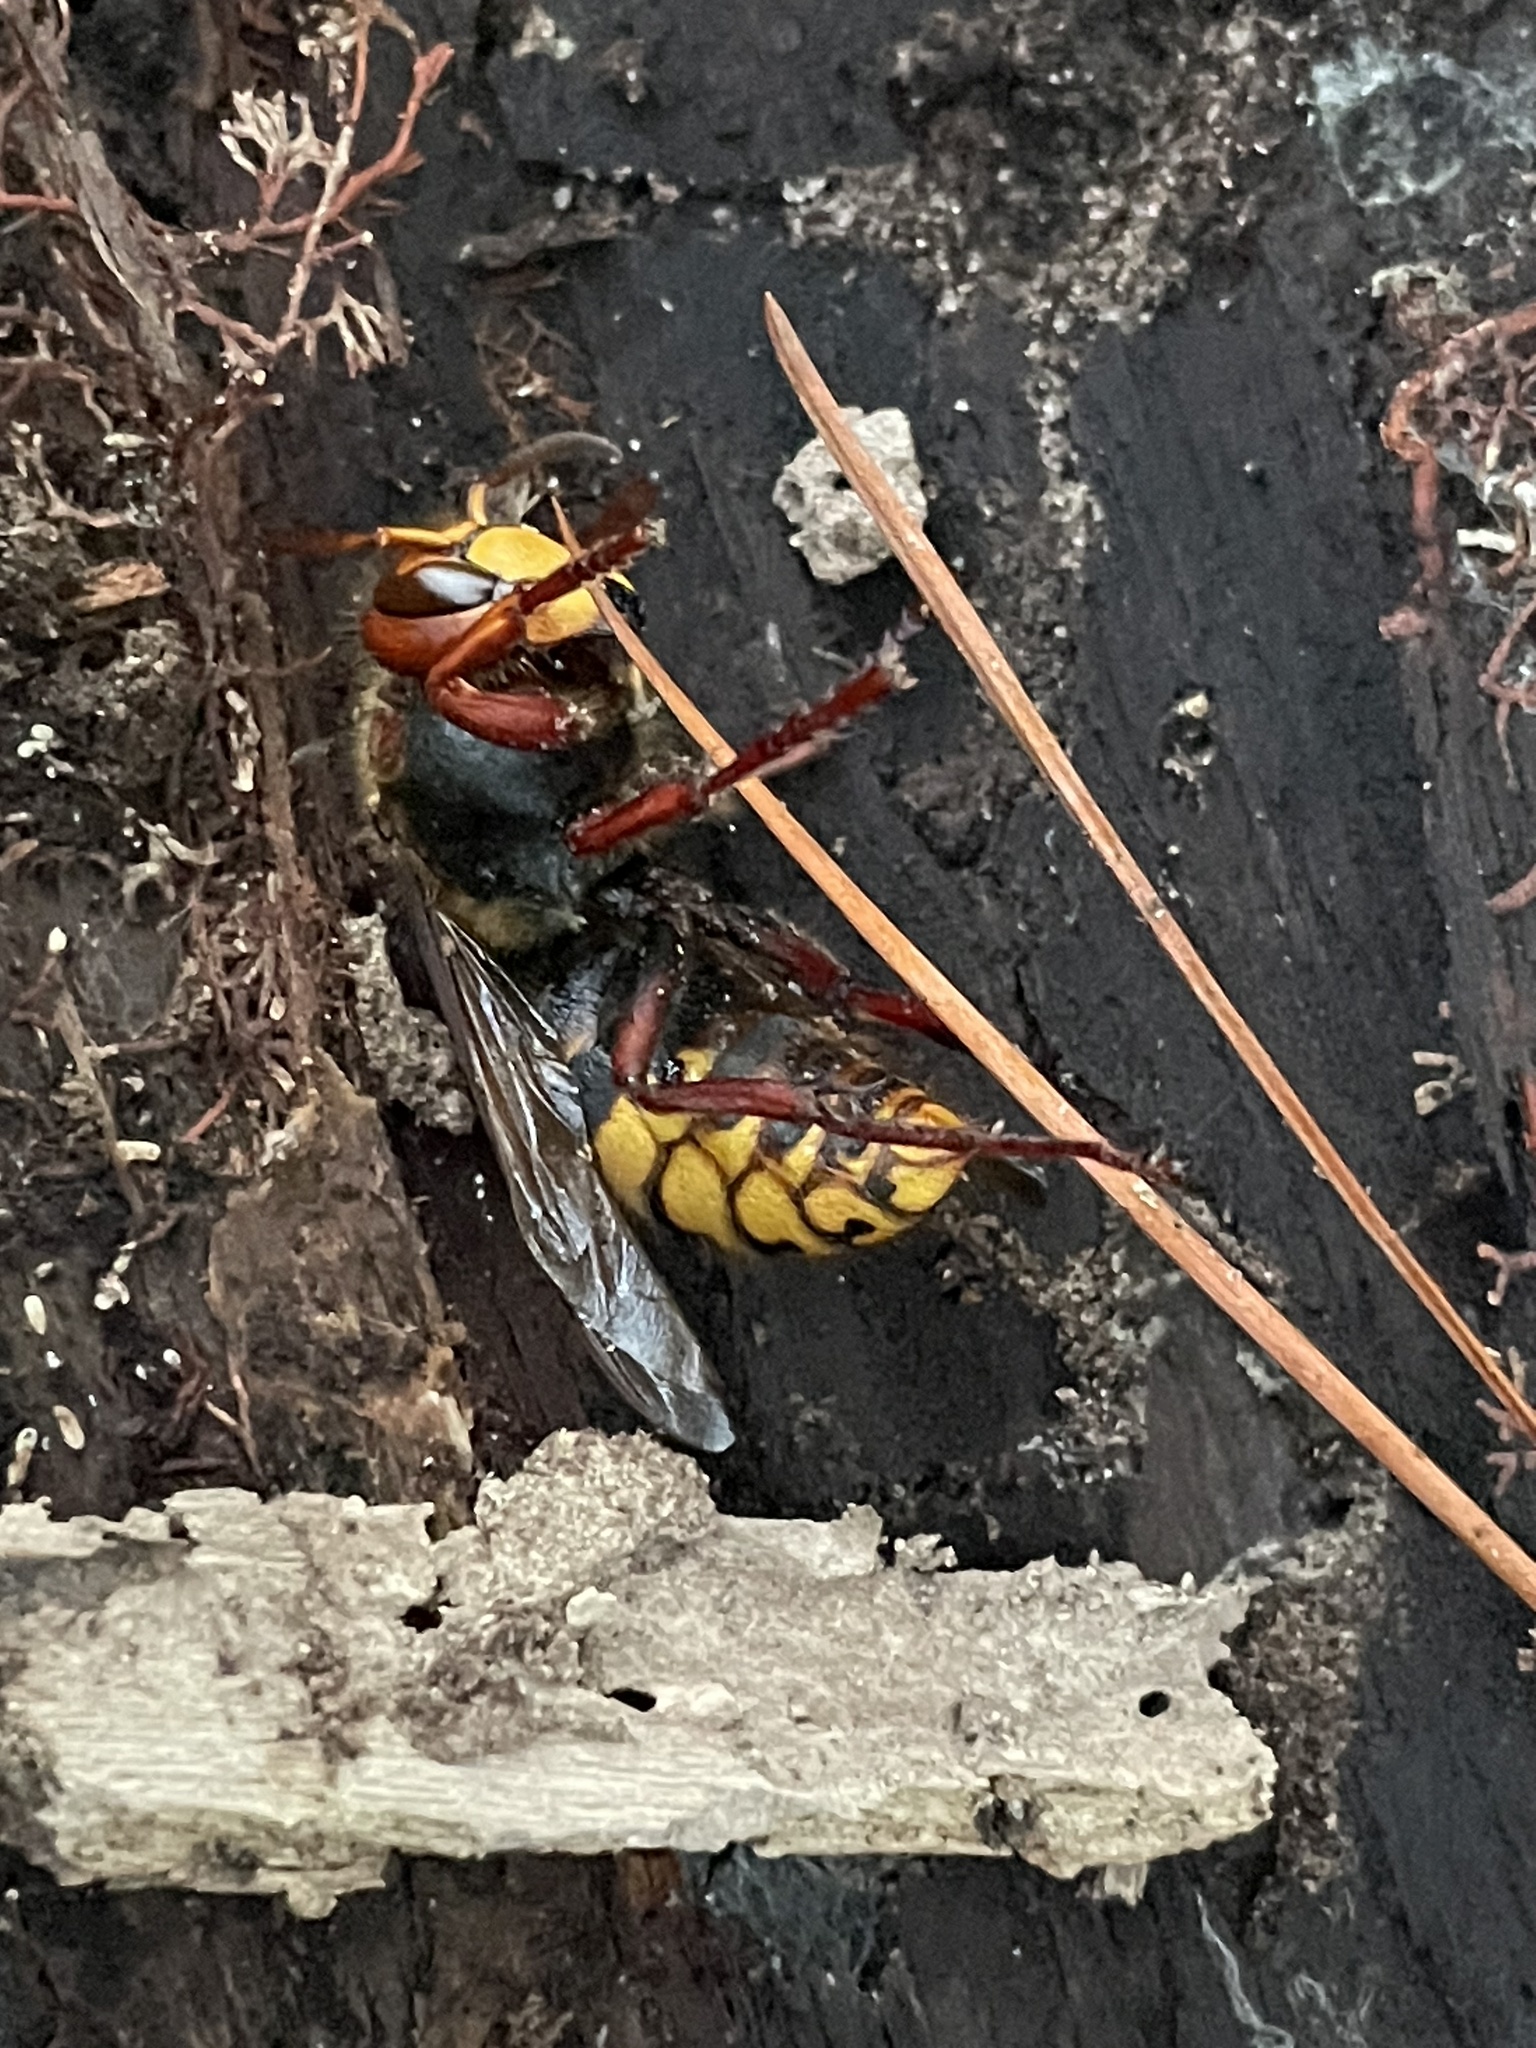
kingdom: Animalia
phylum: Arthropoda
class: Insecta
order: Hymenoptera
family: Vespidae
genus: Vespa
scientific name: Vespa crabro
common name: Hornet
